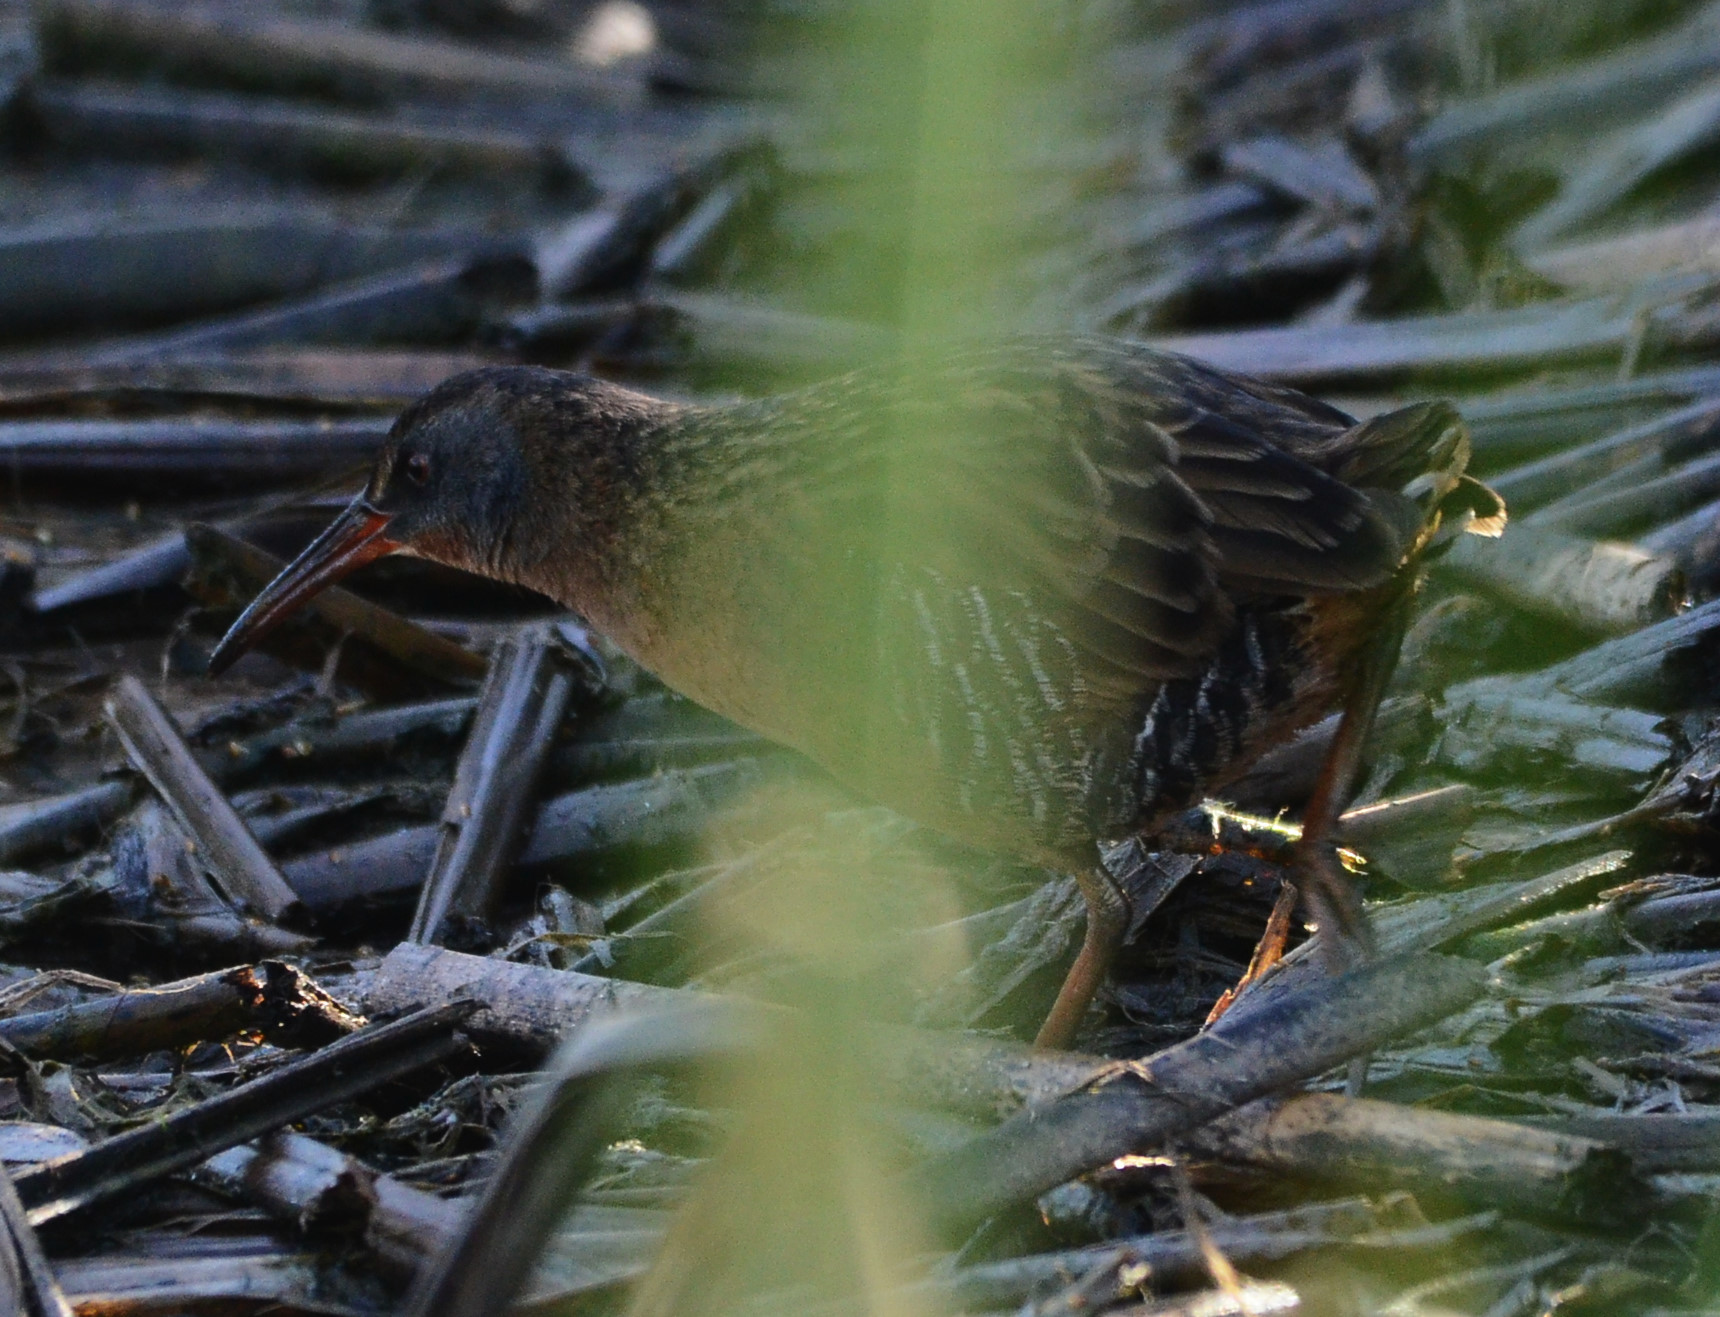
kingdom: Animalia
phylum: Chordata
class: Aves
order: Gruiformes
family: Rallidae
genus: Rallus
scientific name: Rallus limicola
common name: Virginia rail
